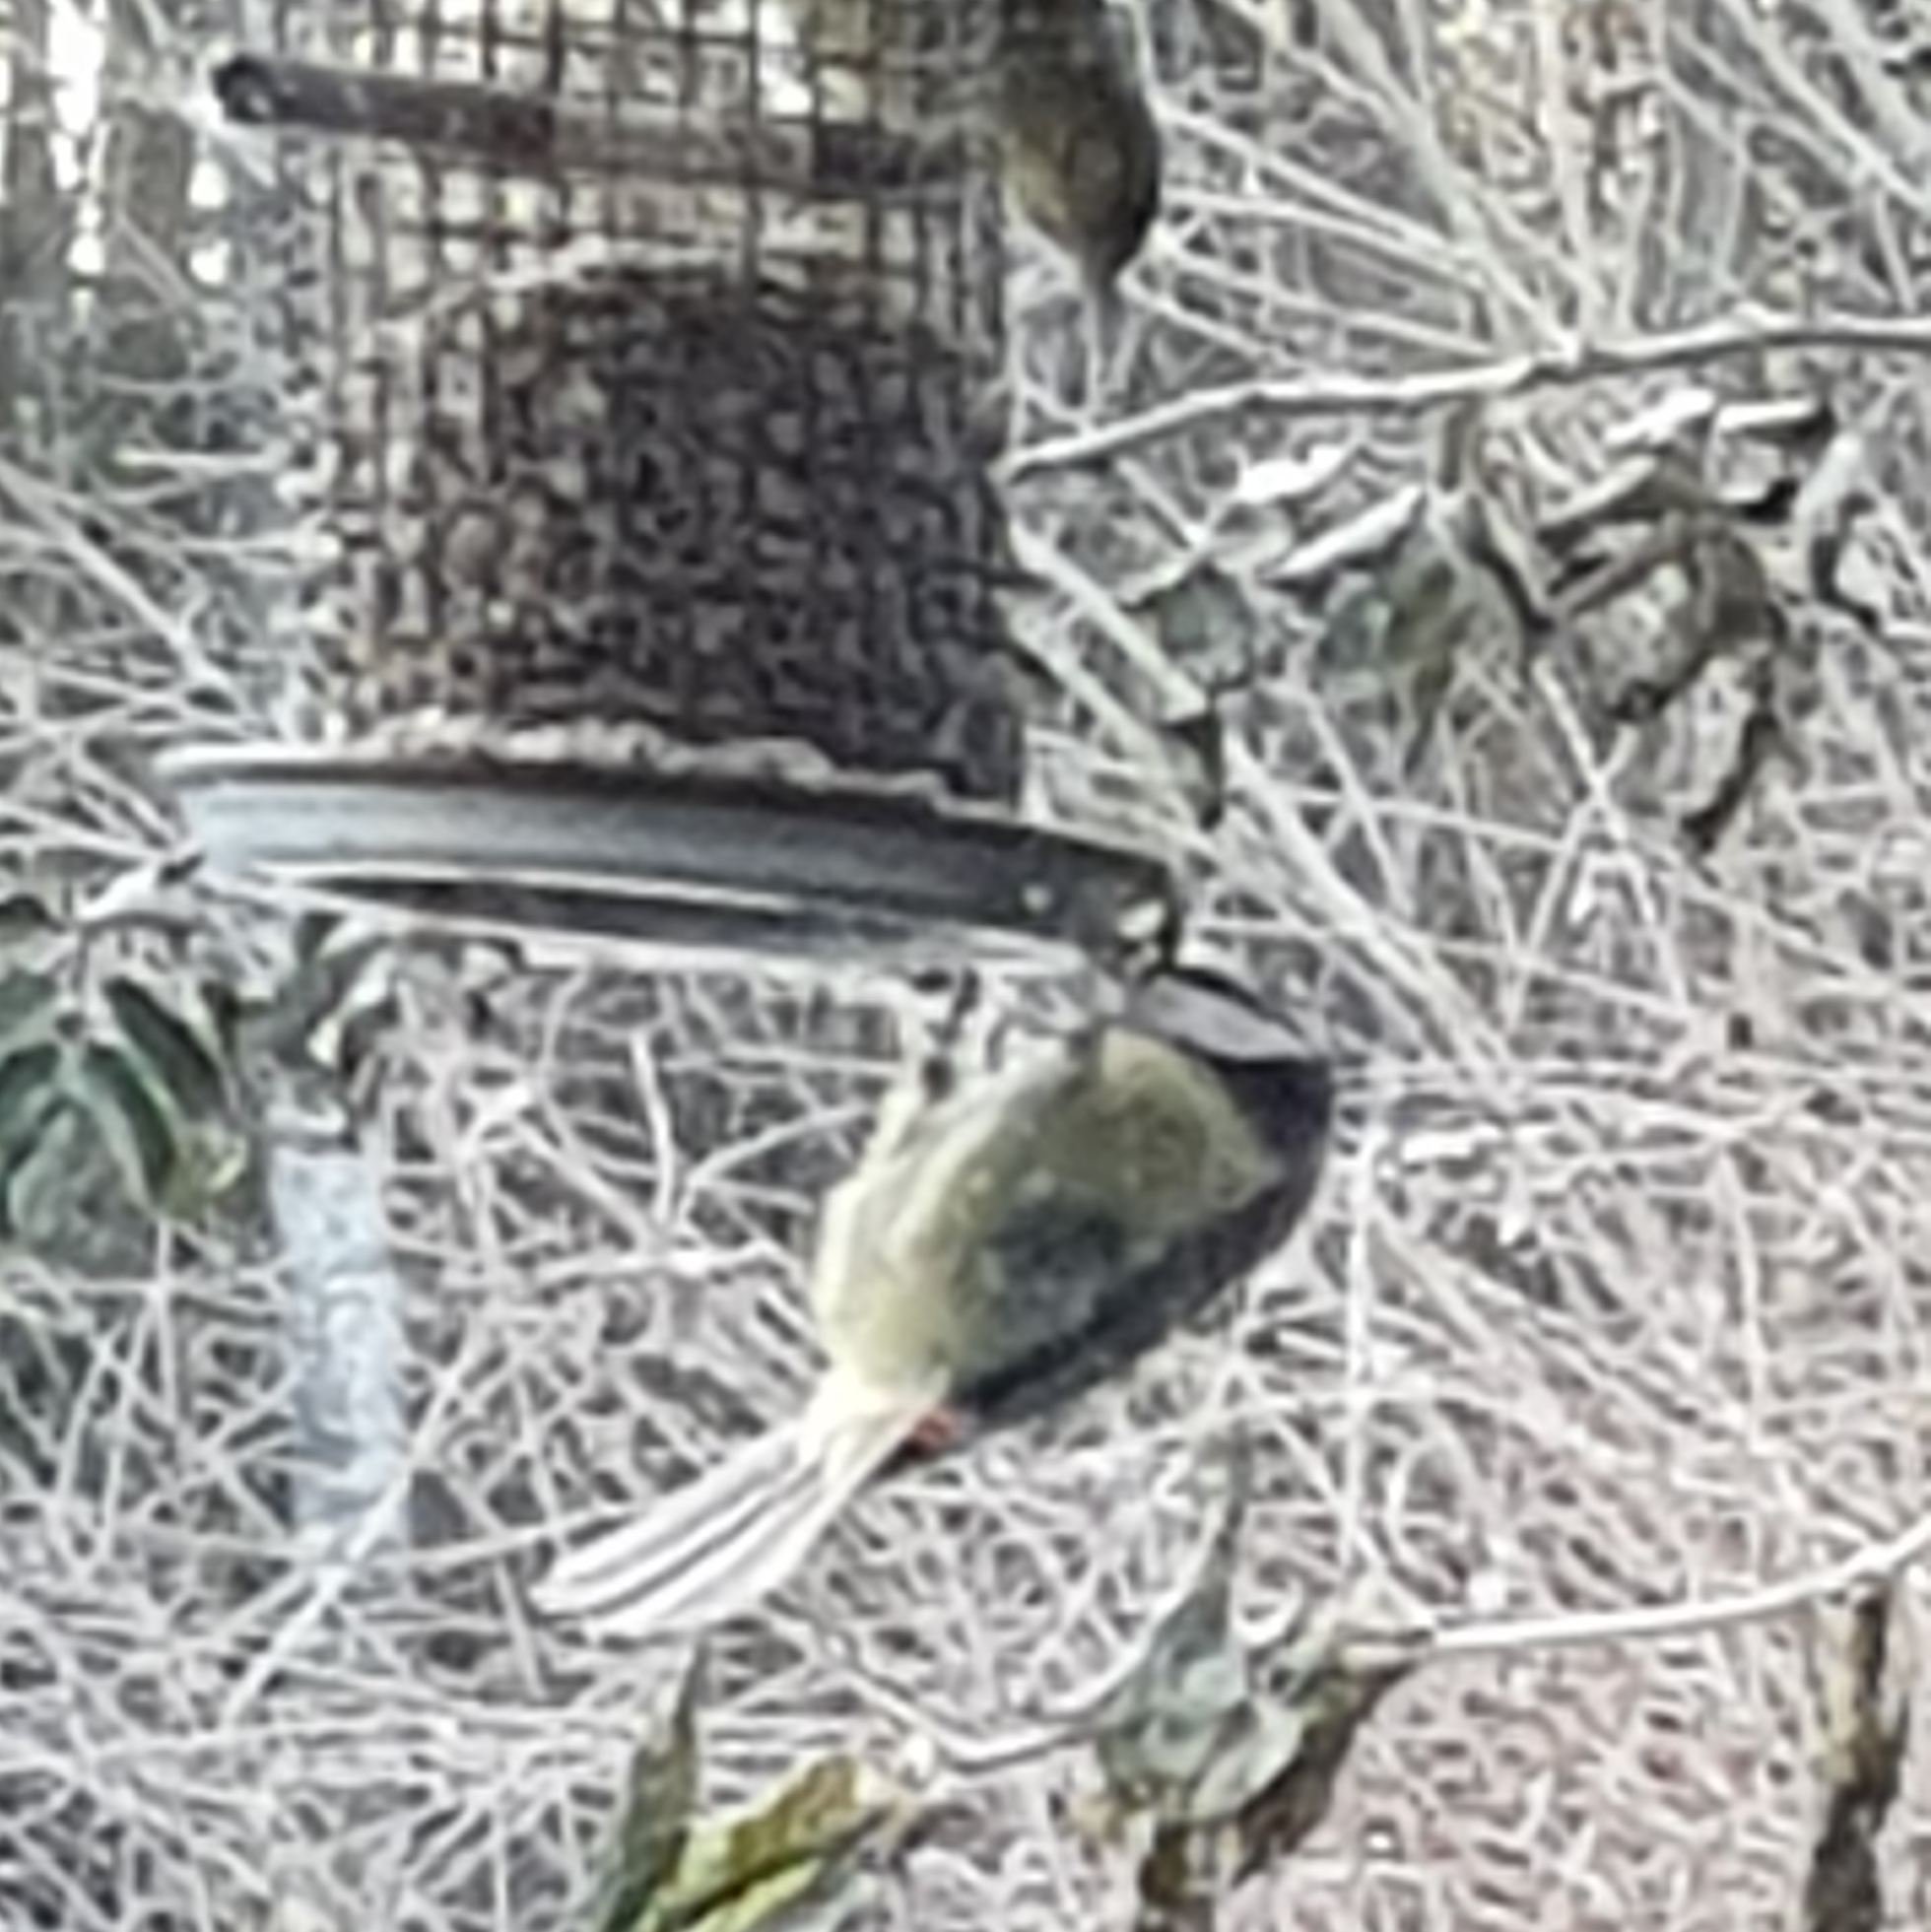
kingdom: Animalia
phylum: Chordata
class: Aves
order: Passeriformes
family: Paridae
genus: Cyanistes
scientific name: Cyanistes caeruleus
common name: Eurasian blue tit
